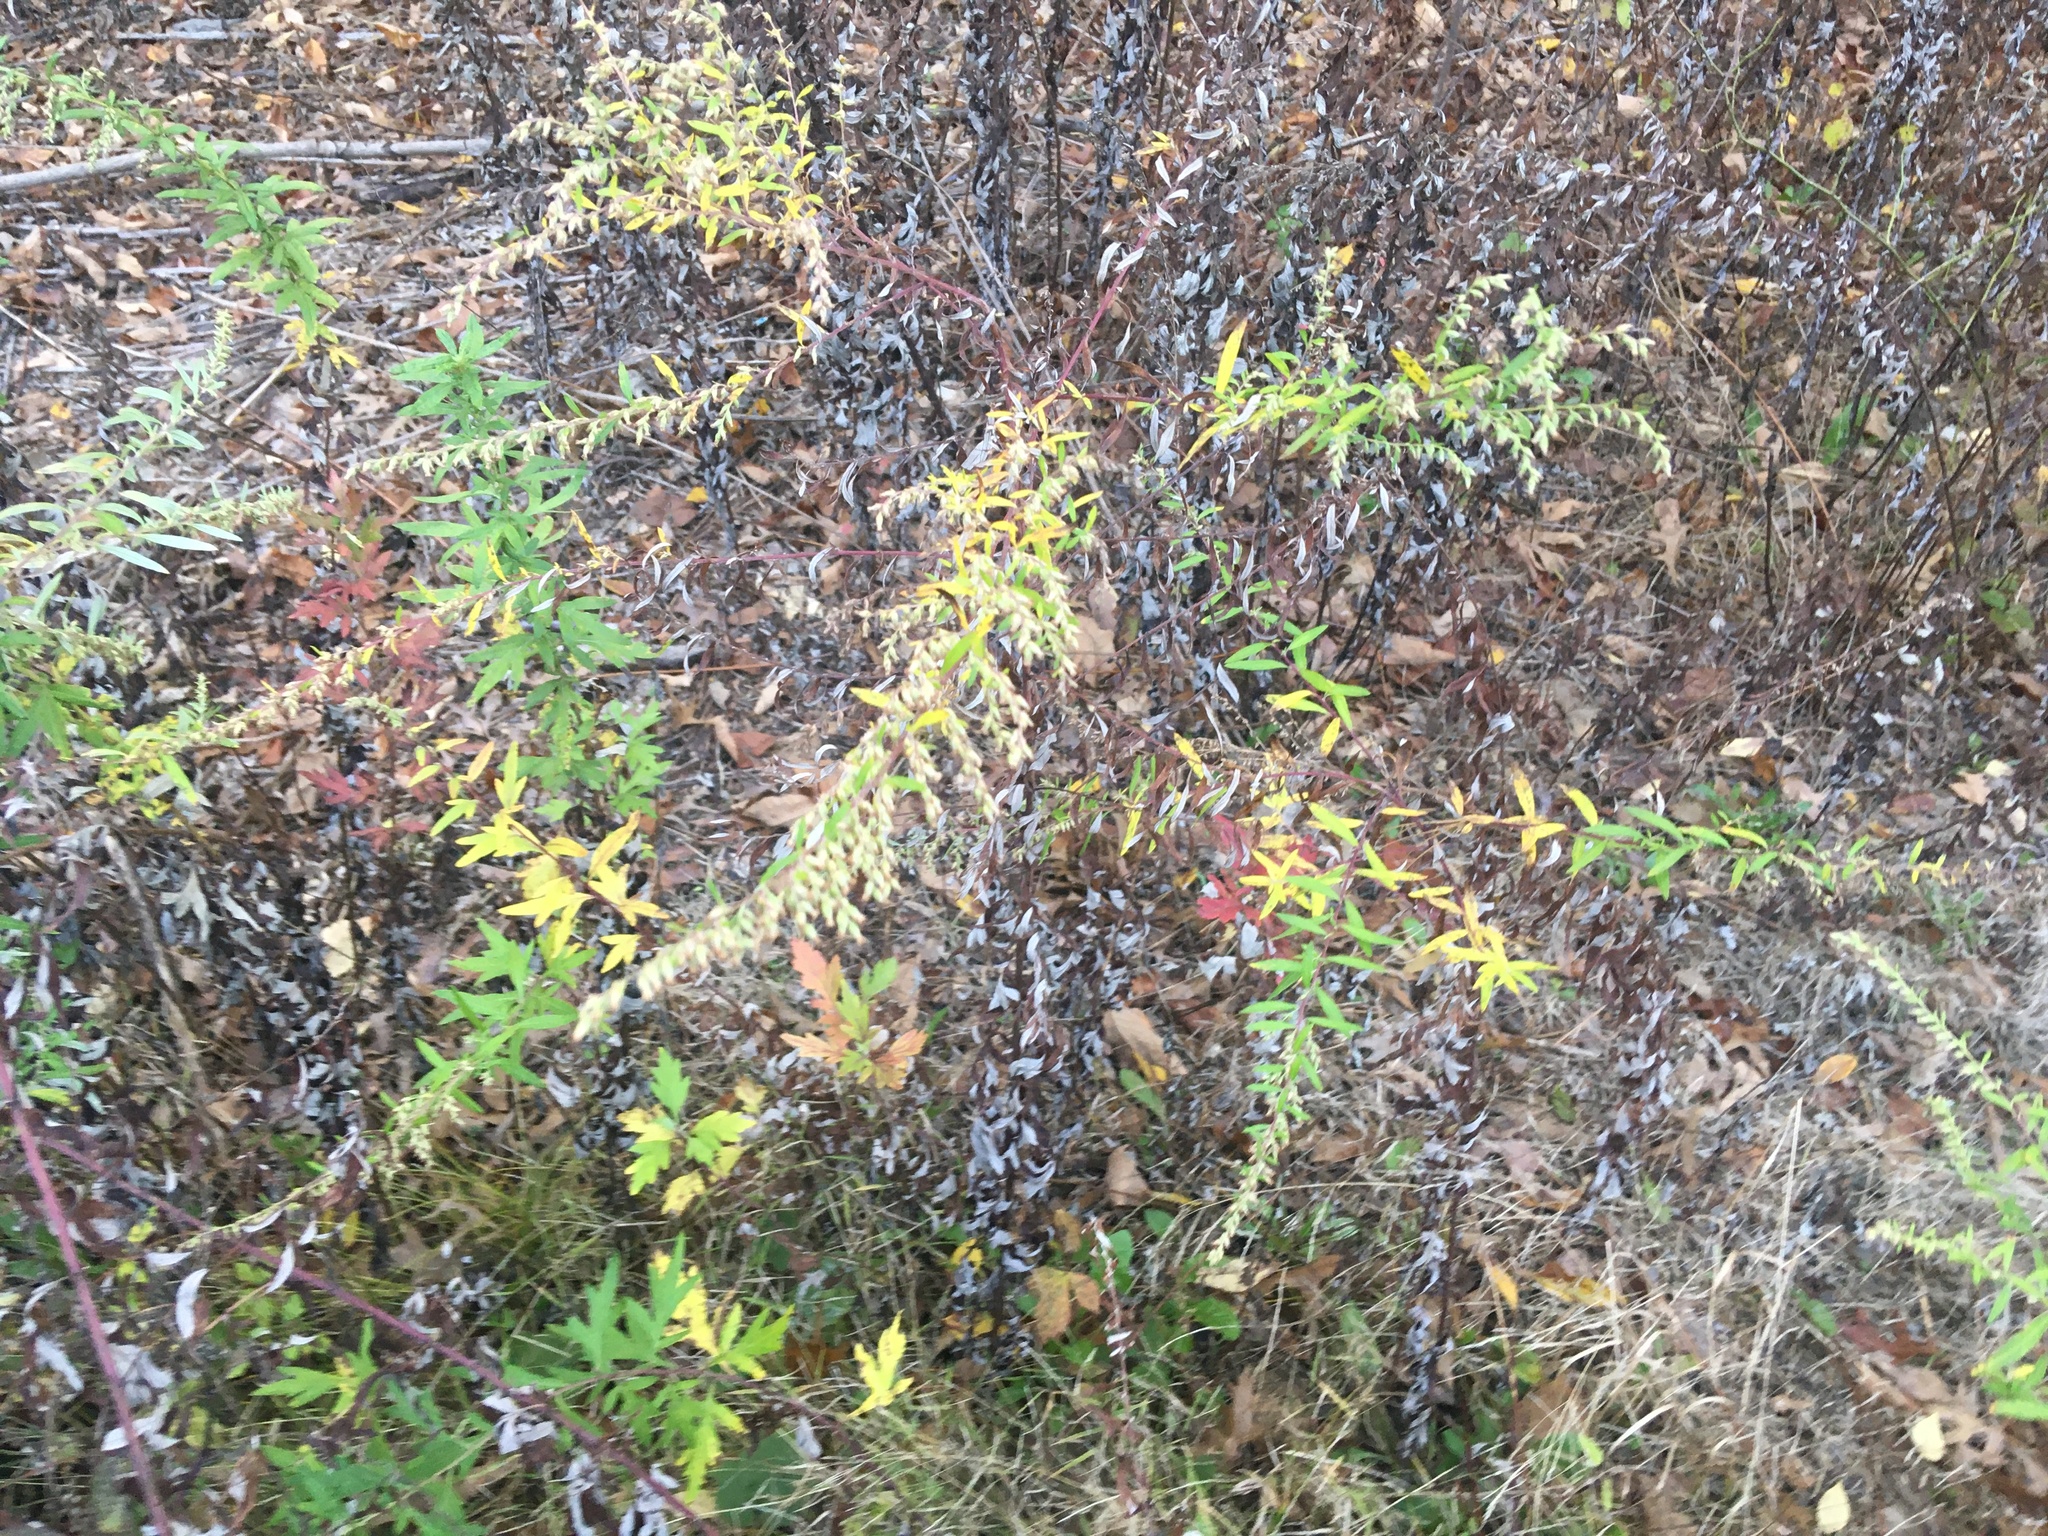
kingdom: Plantae
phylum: Tracheophyta
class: Magnoliopsida
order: Asterales
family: Asteraceae
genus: Artemisia
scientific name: Artemisia vulgaris
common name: Mugwort
